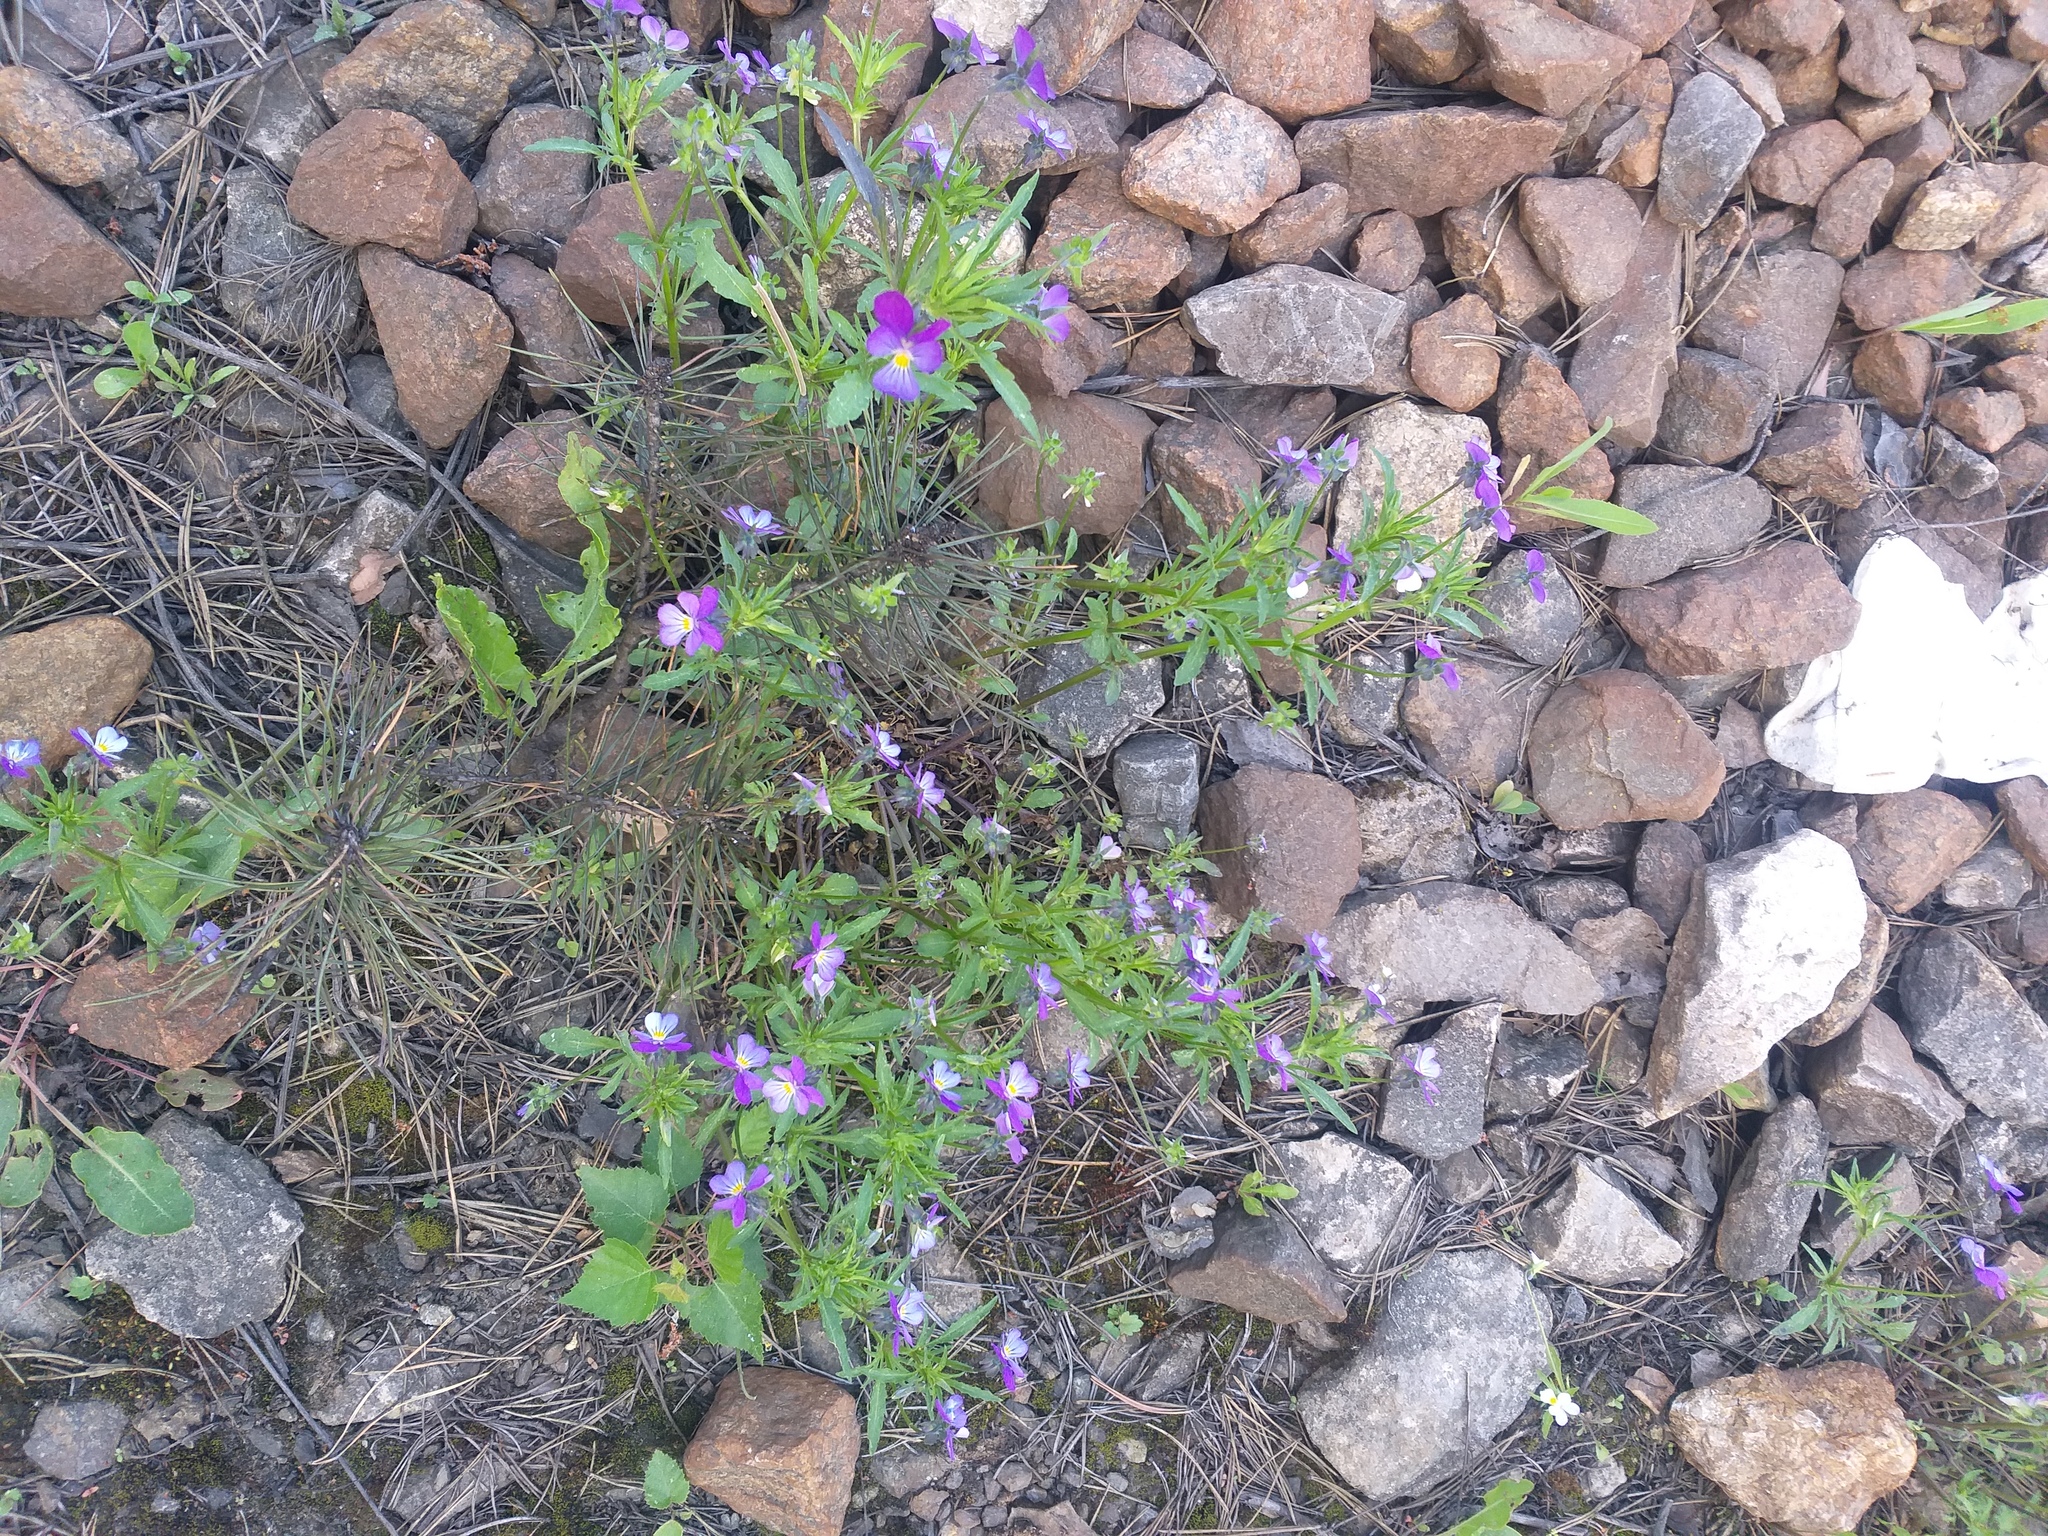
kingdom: Plantae
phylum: Tracheophyta
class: Magnoliopsida
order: Malpighiales
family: Violaceae
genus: Viola
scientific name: Viola tricolor
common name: Pansy
